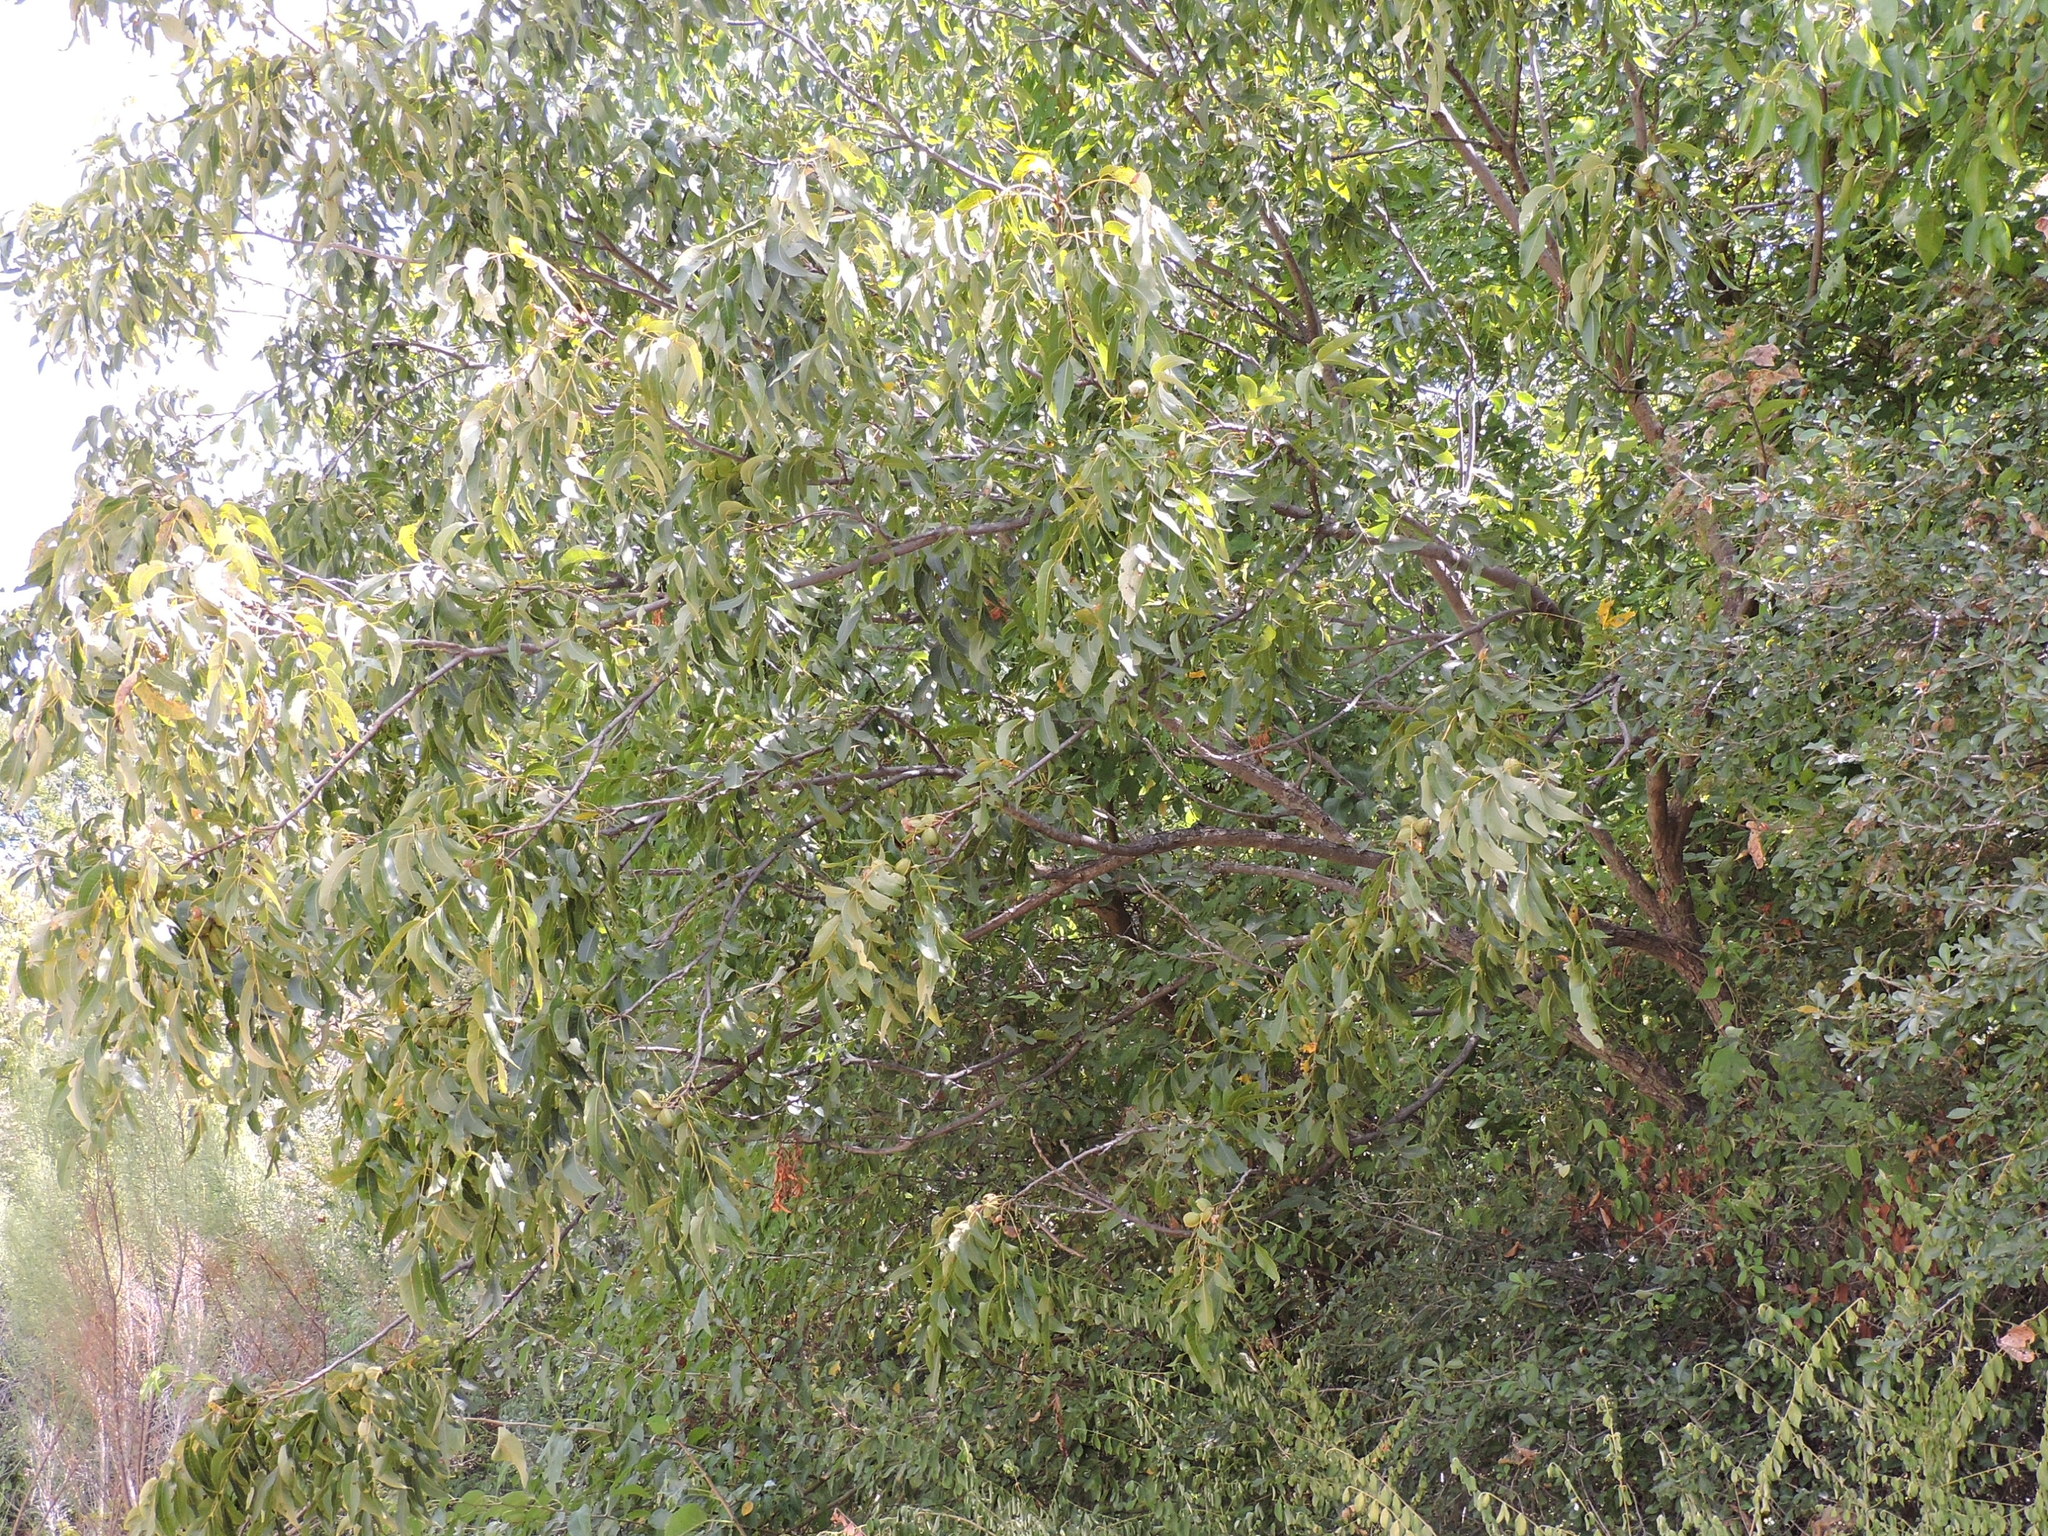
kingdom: Plantae
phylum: Tracheophyta
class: Magnoliopsida
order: Fagales
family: Juglandaceae
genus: Carya
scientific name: Carya illinoinensis
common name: Pecan
